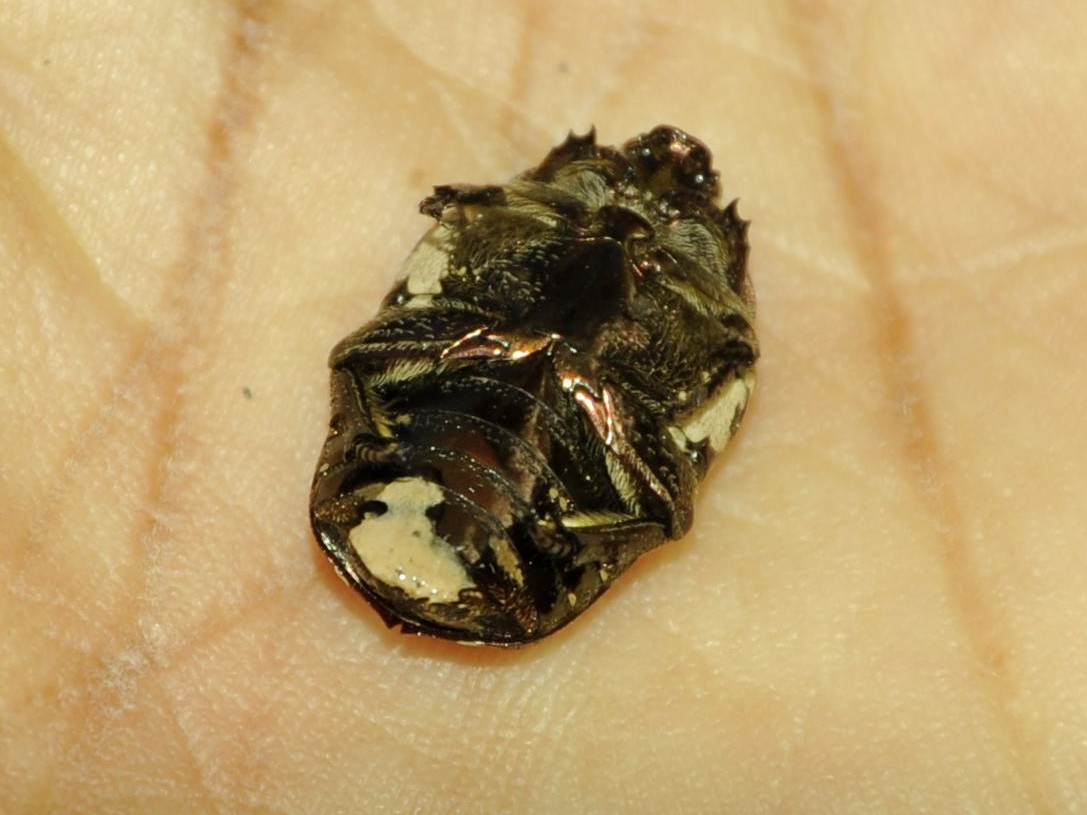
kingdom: Animalia
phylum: Arthropoda
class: Insecta
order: Coleoptera
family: Scarabaeidae
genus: Protaetia
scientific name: Protaetia aurichalcea
